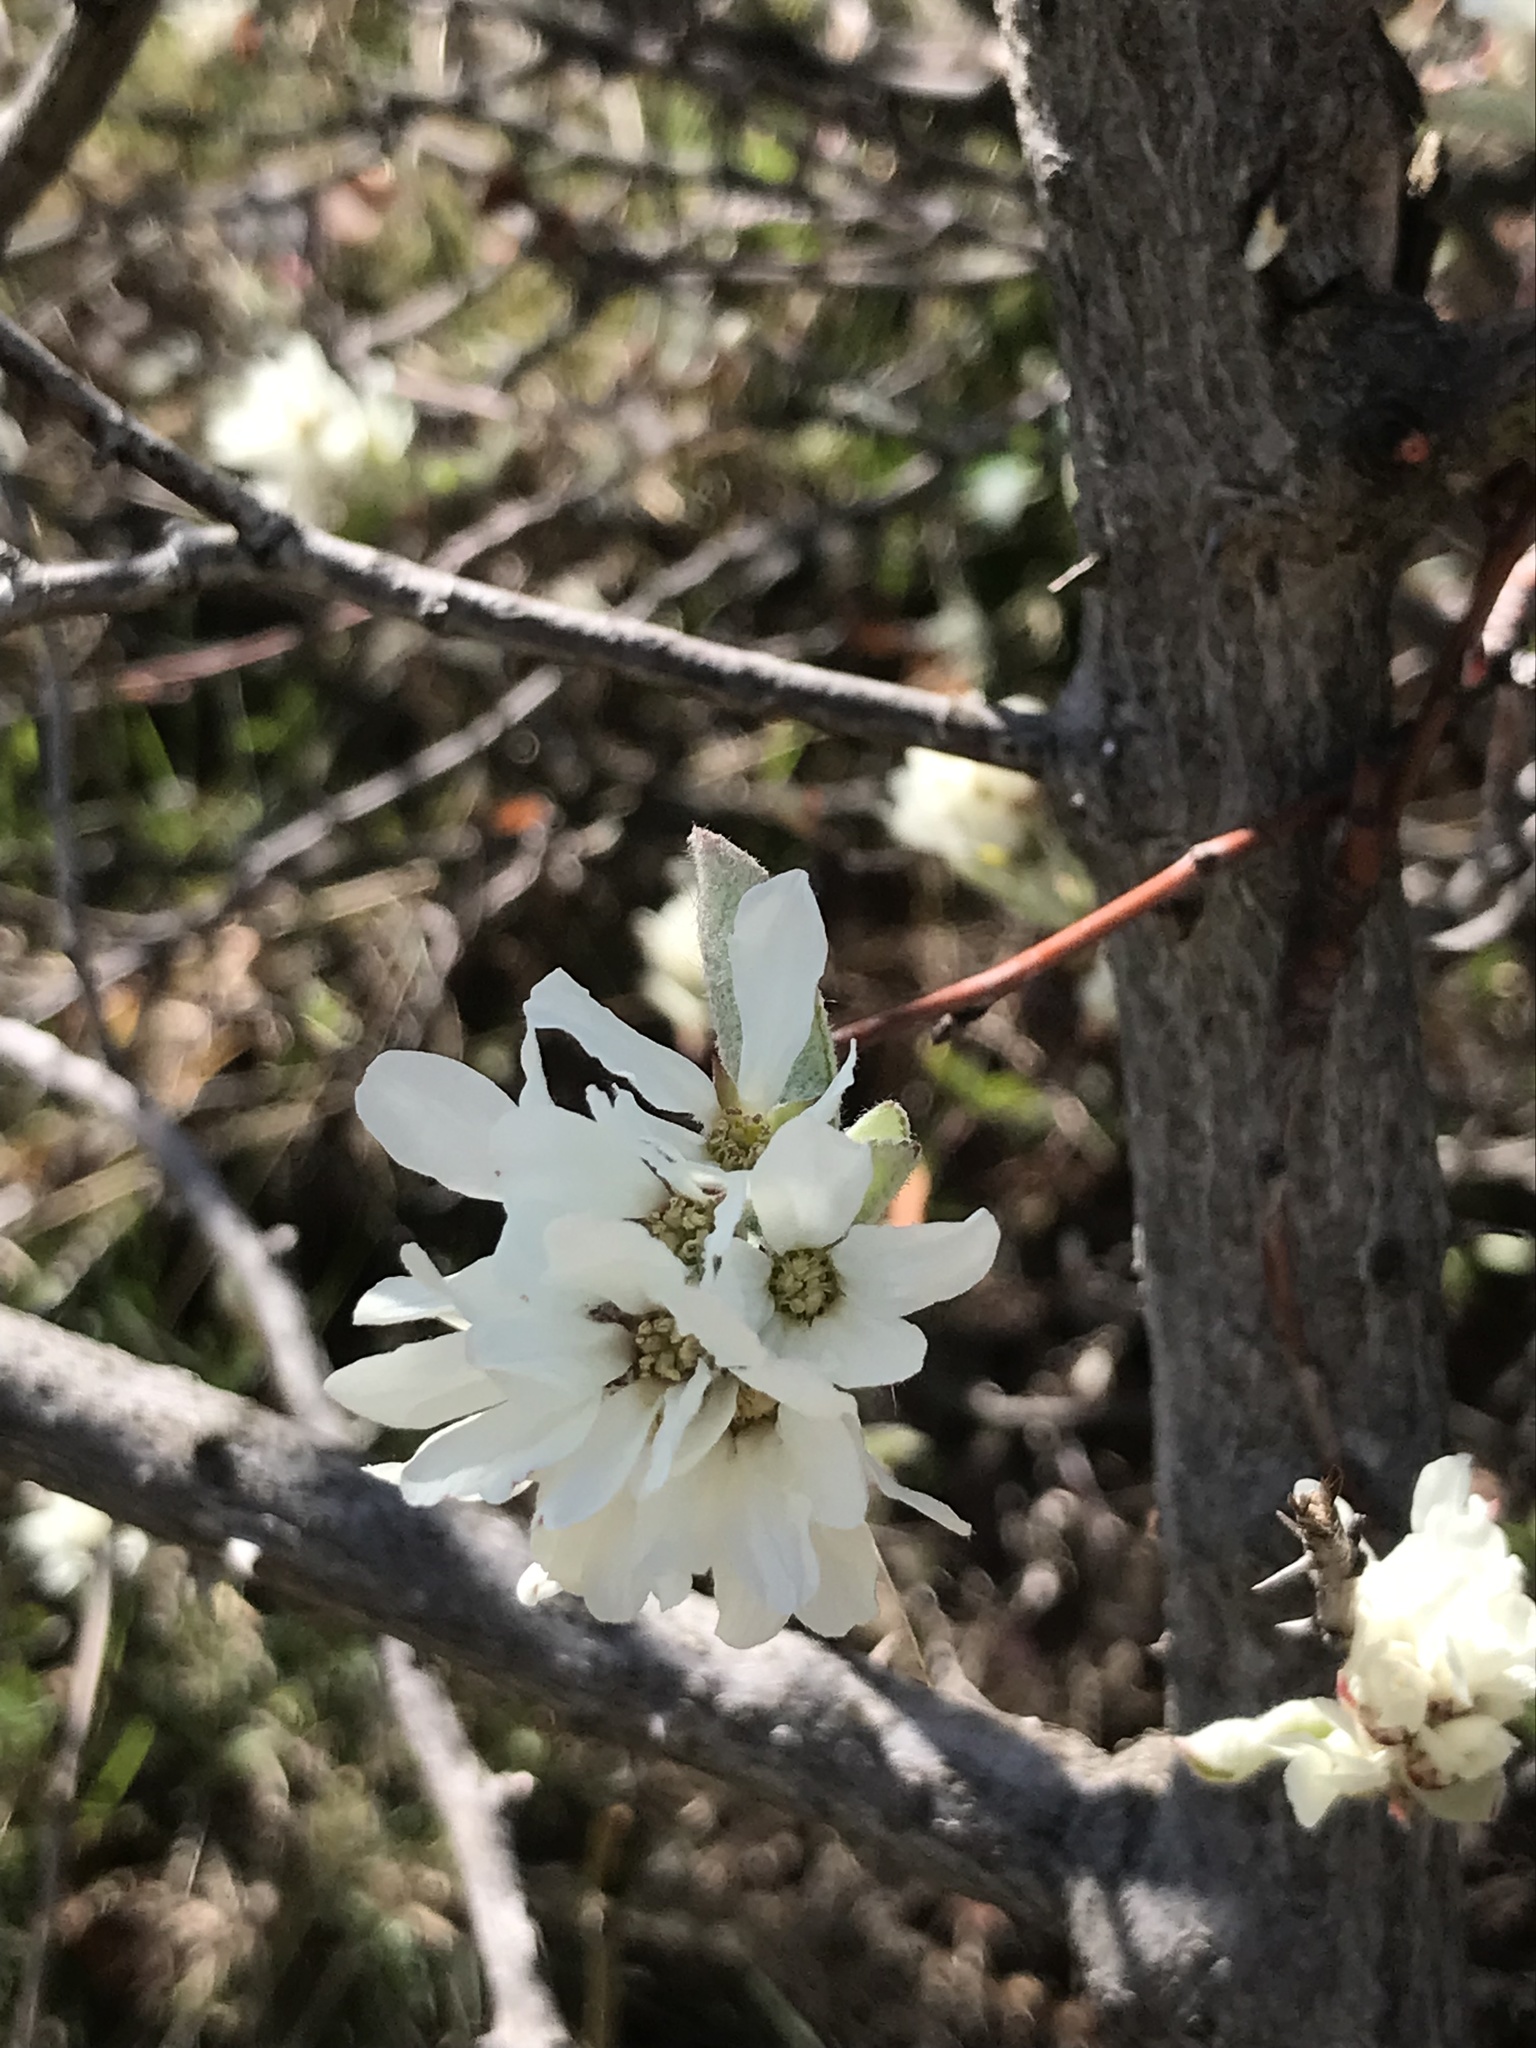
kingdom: Plantae
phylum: Tracheophyta
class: Magnoliopsida
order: Rosales
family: Rosaceae
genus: Amelanchier
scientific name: Amelanchier ovalis
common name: Serviceberry
